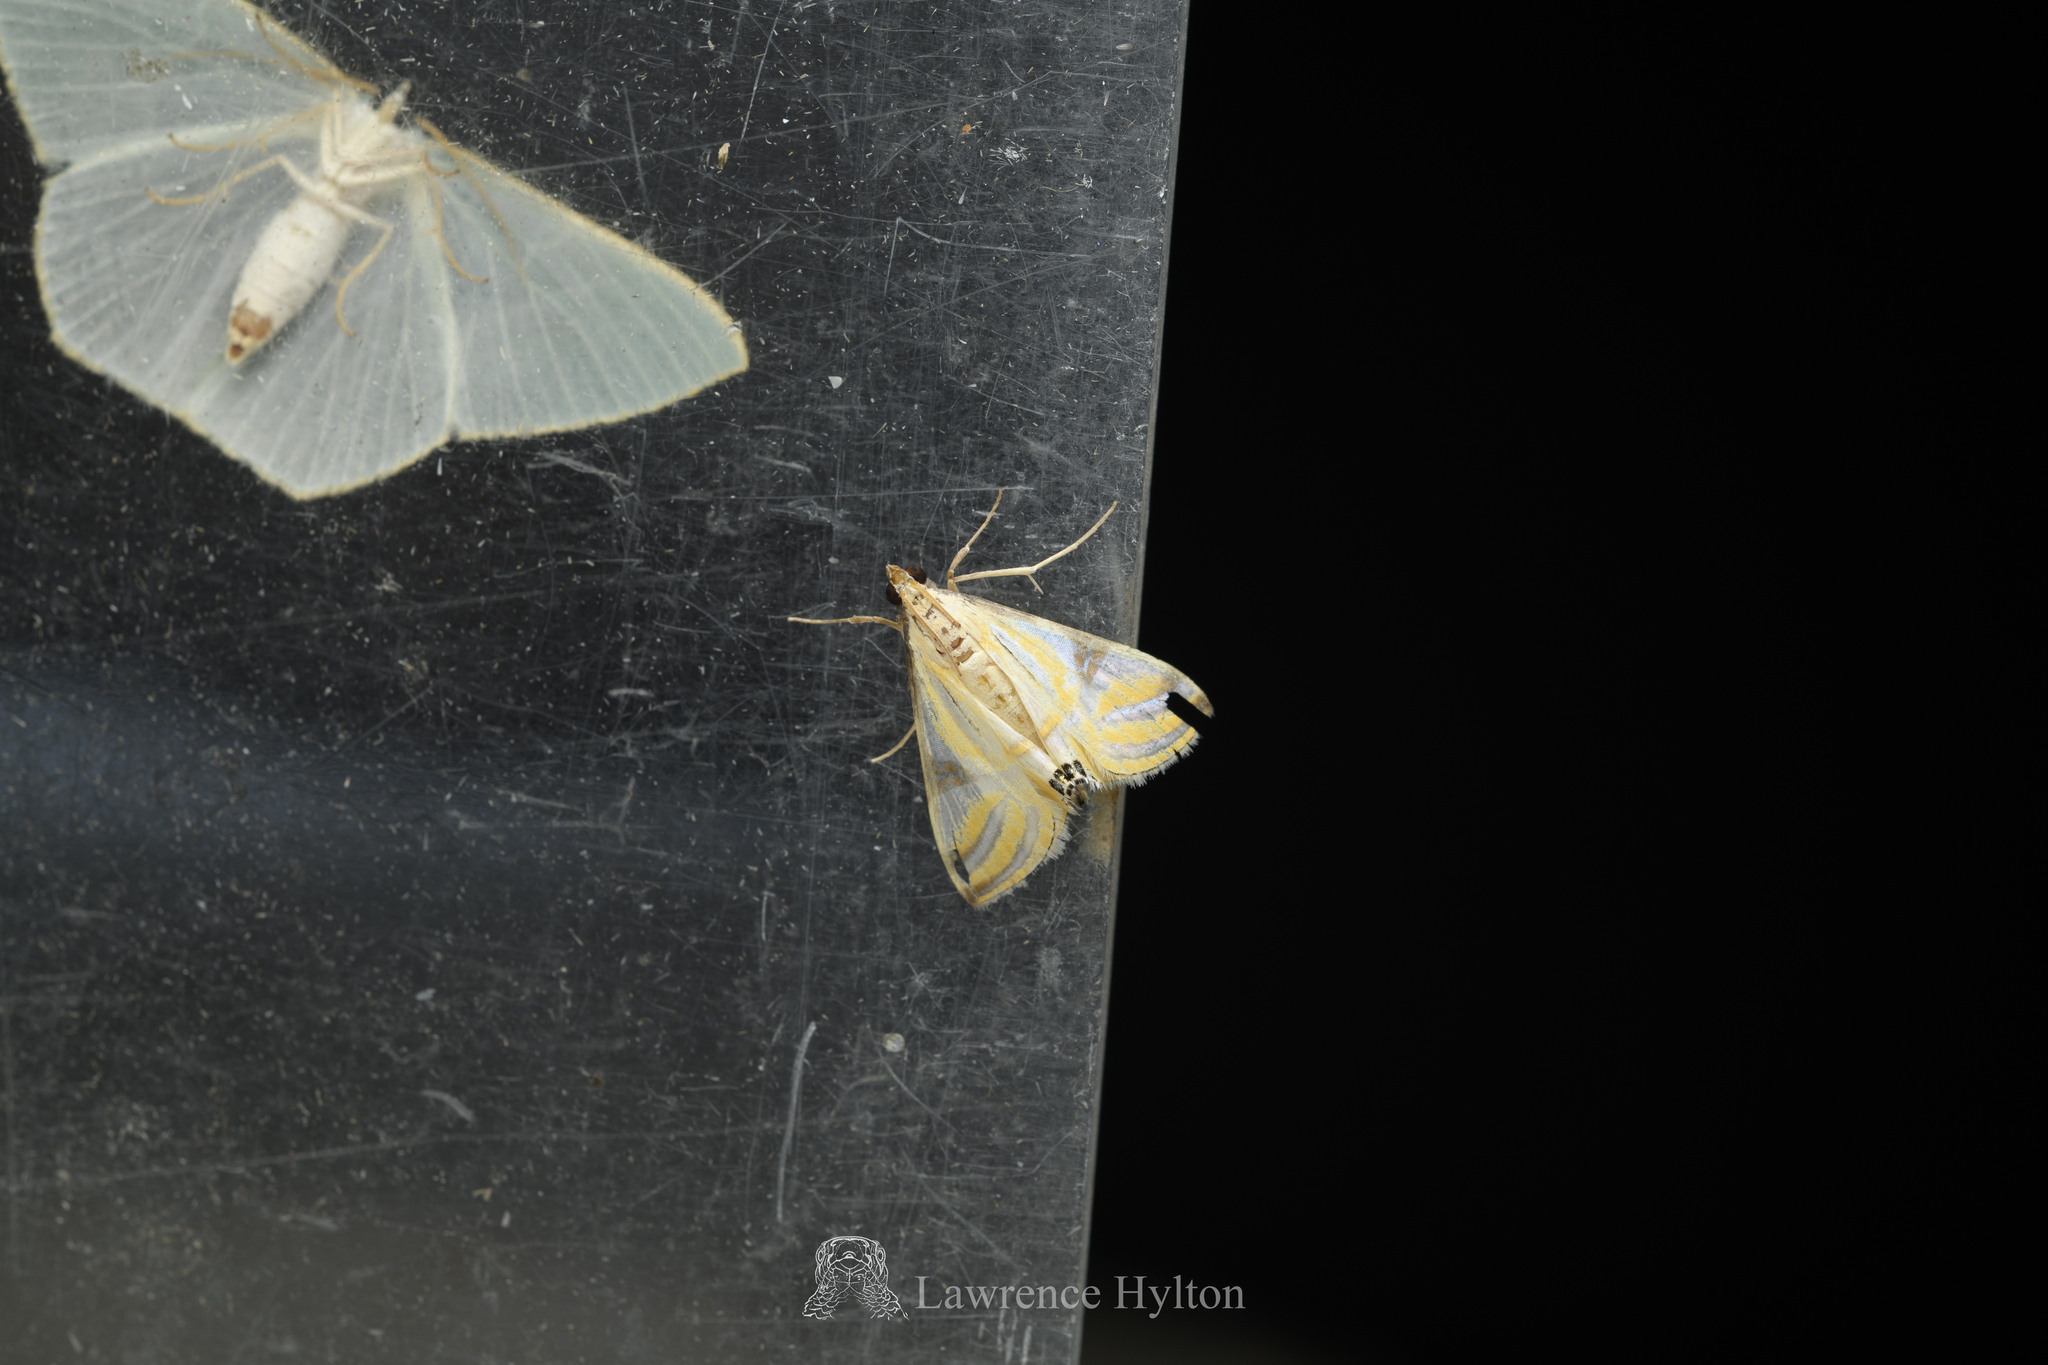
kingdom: Animalia
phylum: Arthropoda
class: Insecta
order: Lepidoptera
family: Crambidae
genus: Talanga
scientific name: Talanga sexpunctalis
